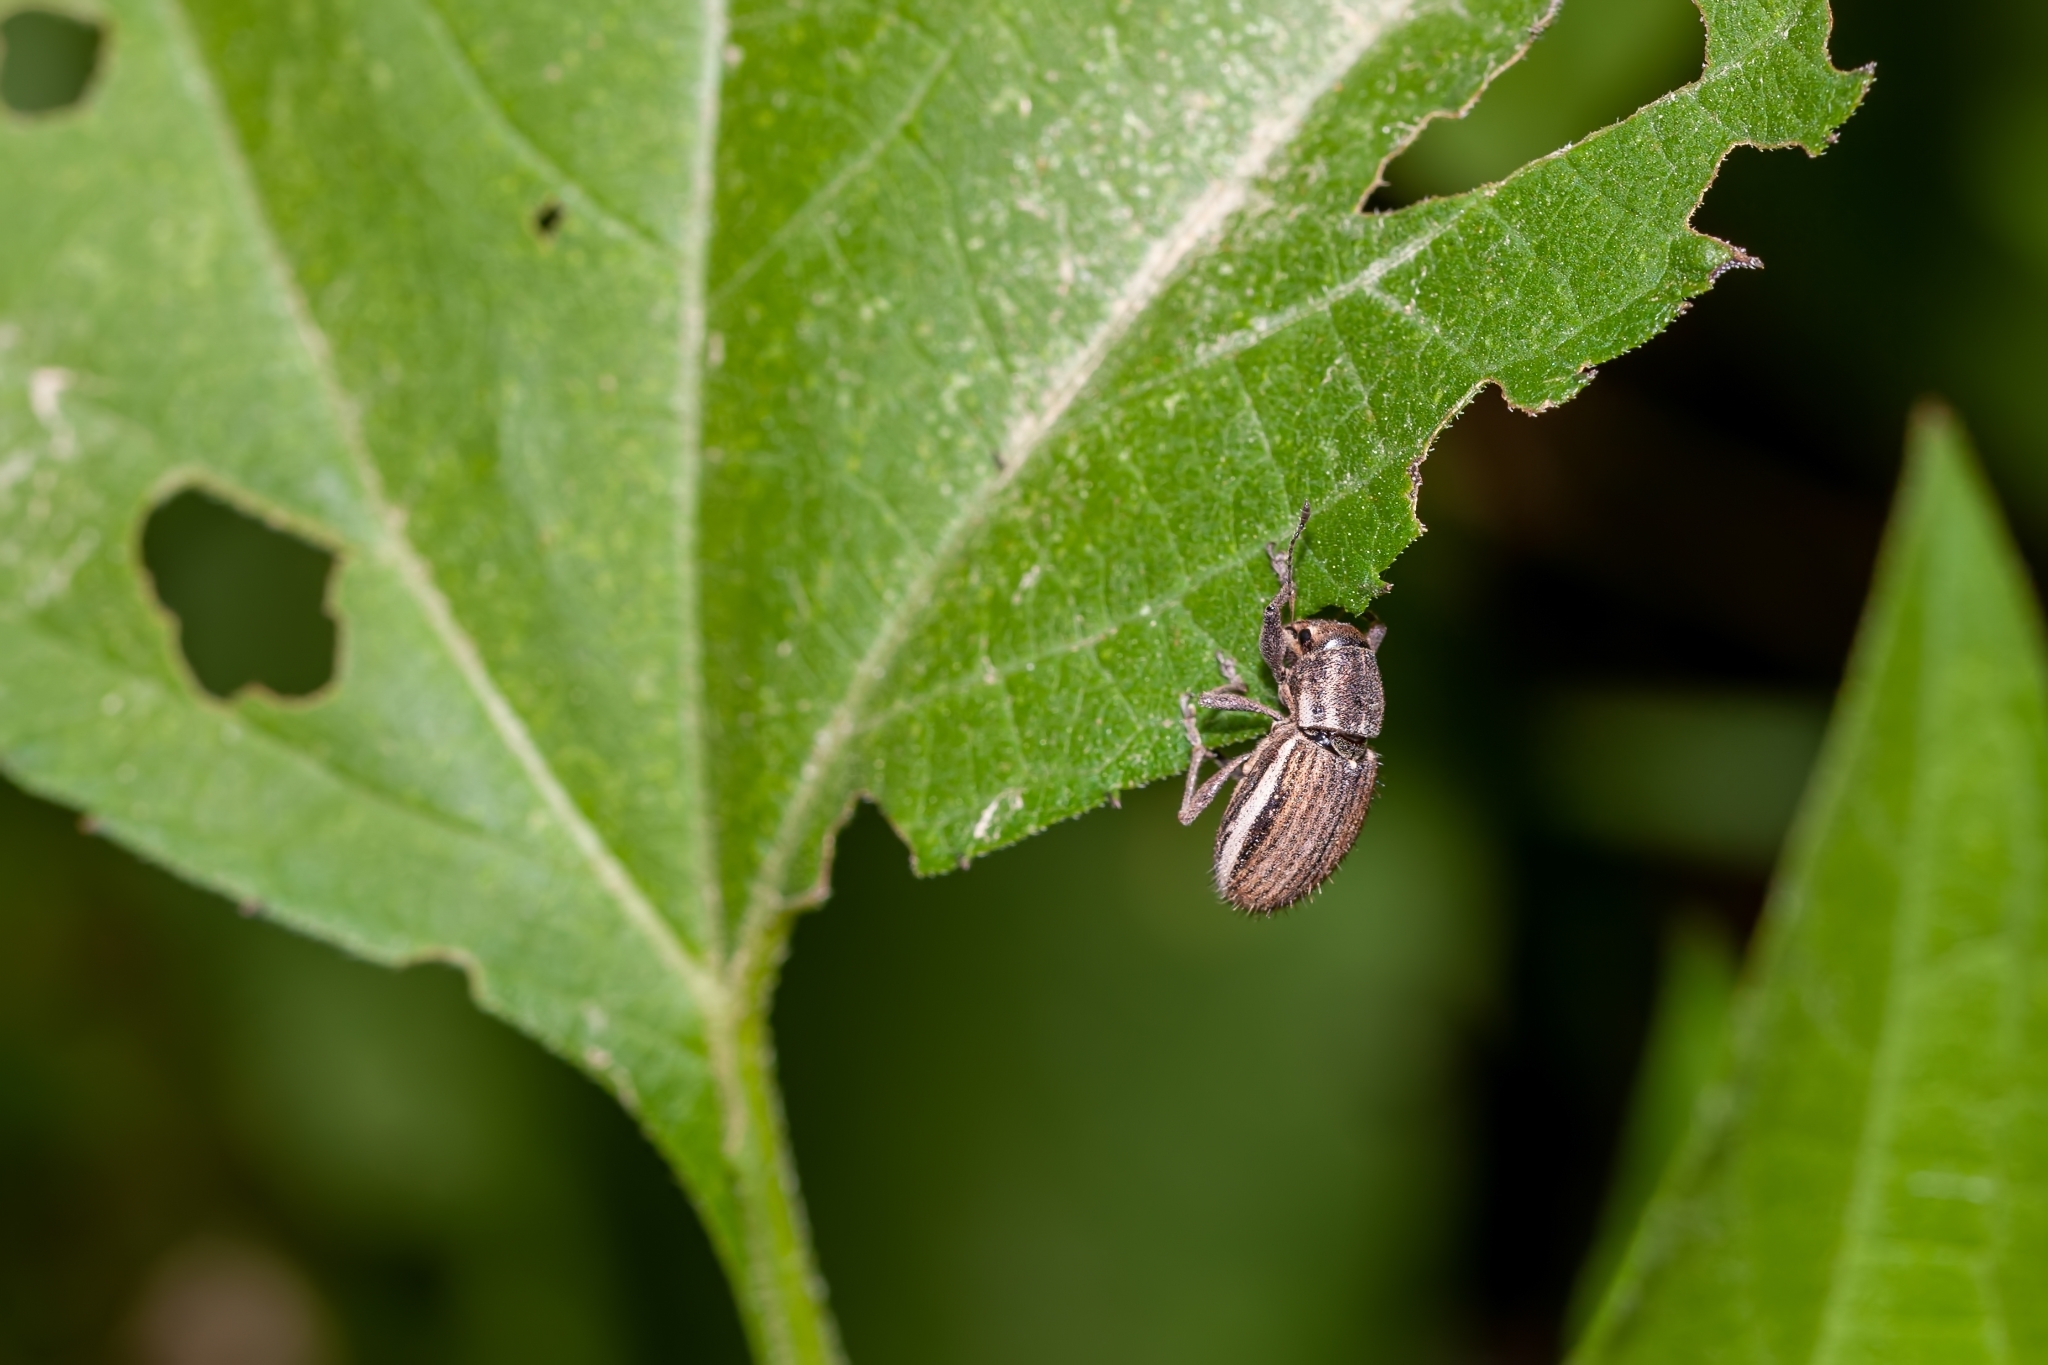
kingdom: Animalia
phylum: Arthropoda
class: Insecta
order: Coleoptera
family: Curculionidae
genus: Naupactus
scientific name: Naupactus leucoloma
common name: Whitefringed beetle
